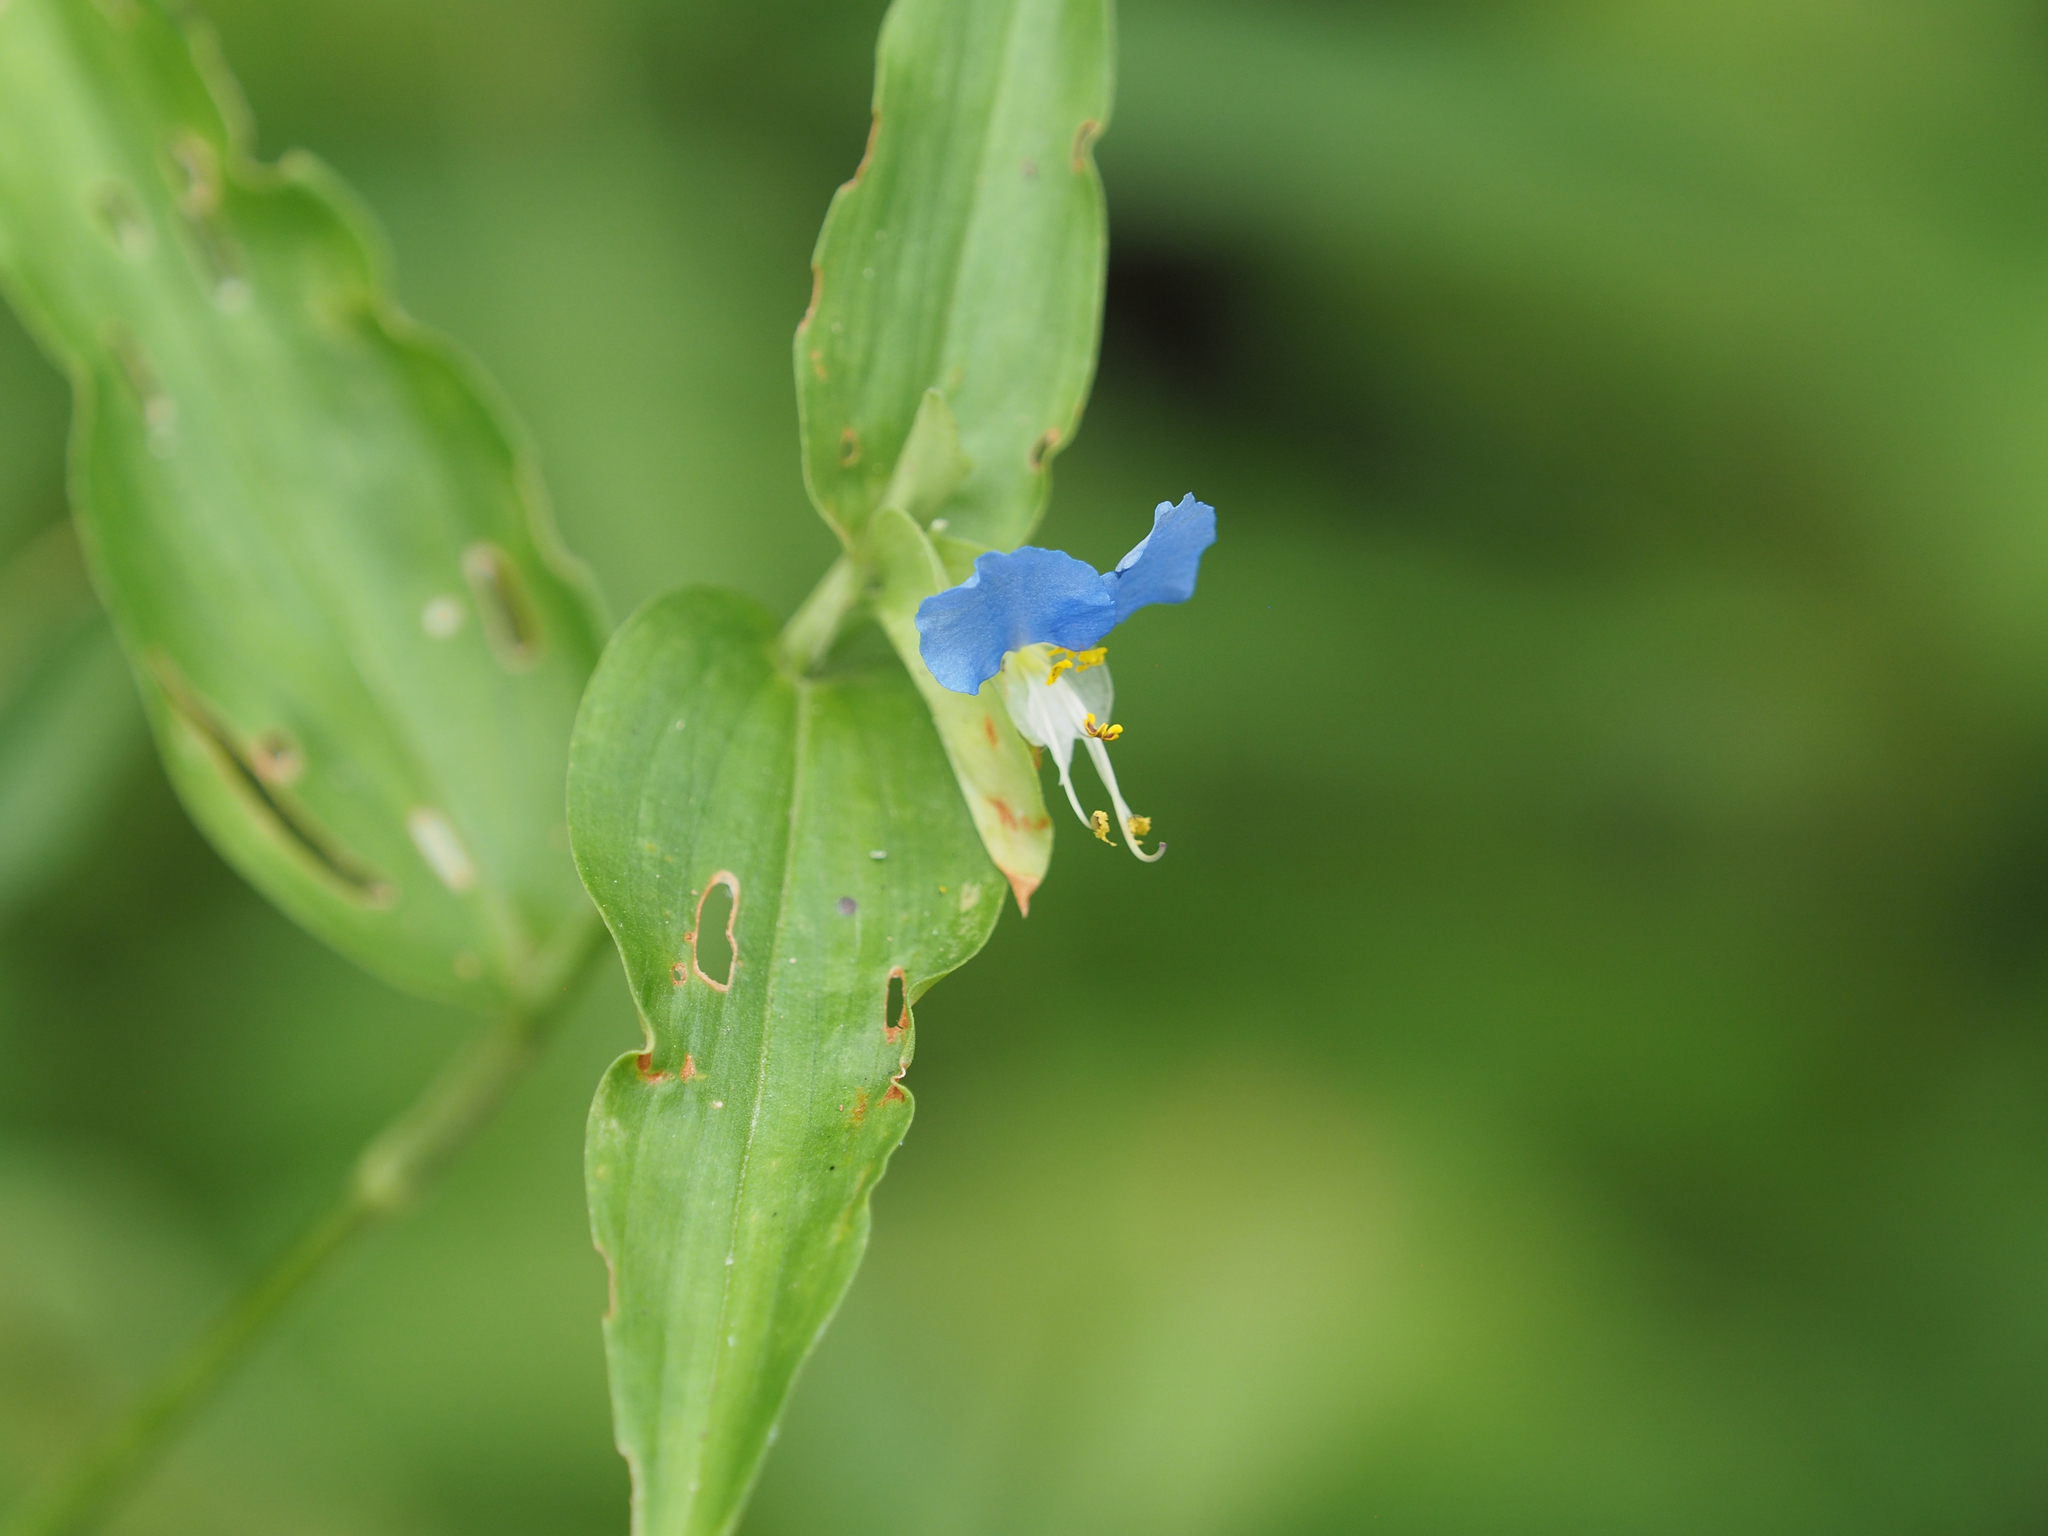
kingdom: Plantae
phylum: Tracheophyta
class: Liliopsida
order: Commelinales
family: Commelinaceae
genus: Commelina
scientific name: Commelina communis
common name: Asiatic dayflower
